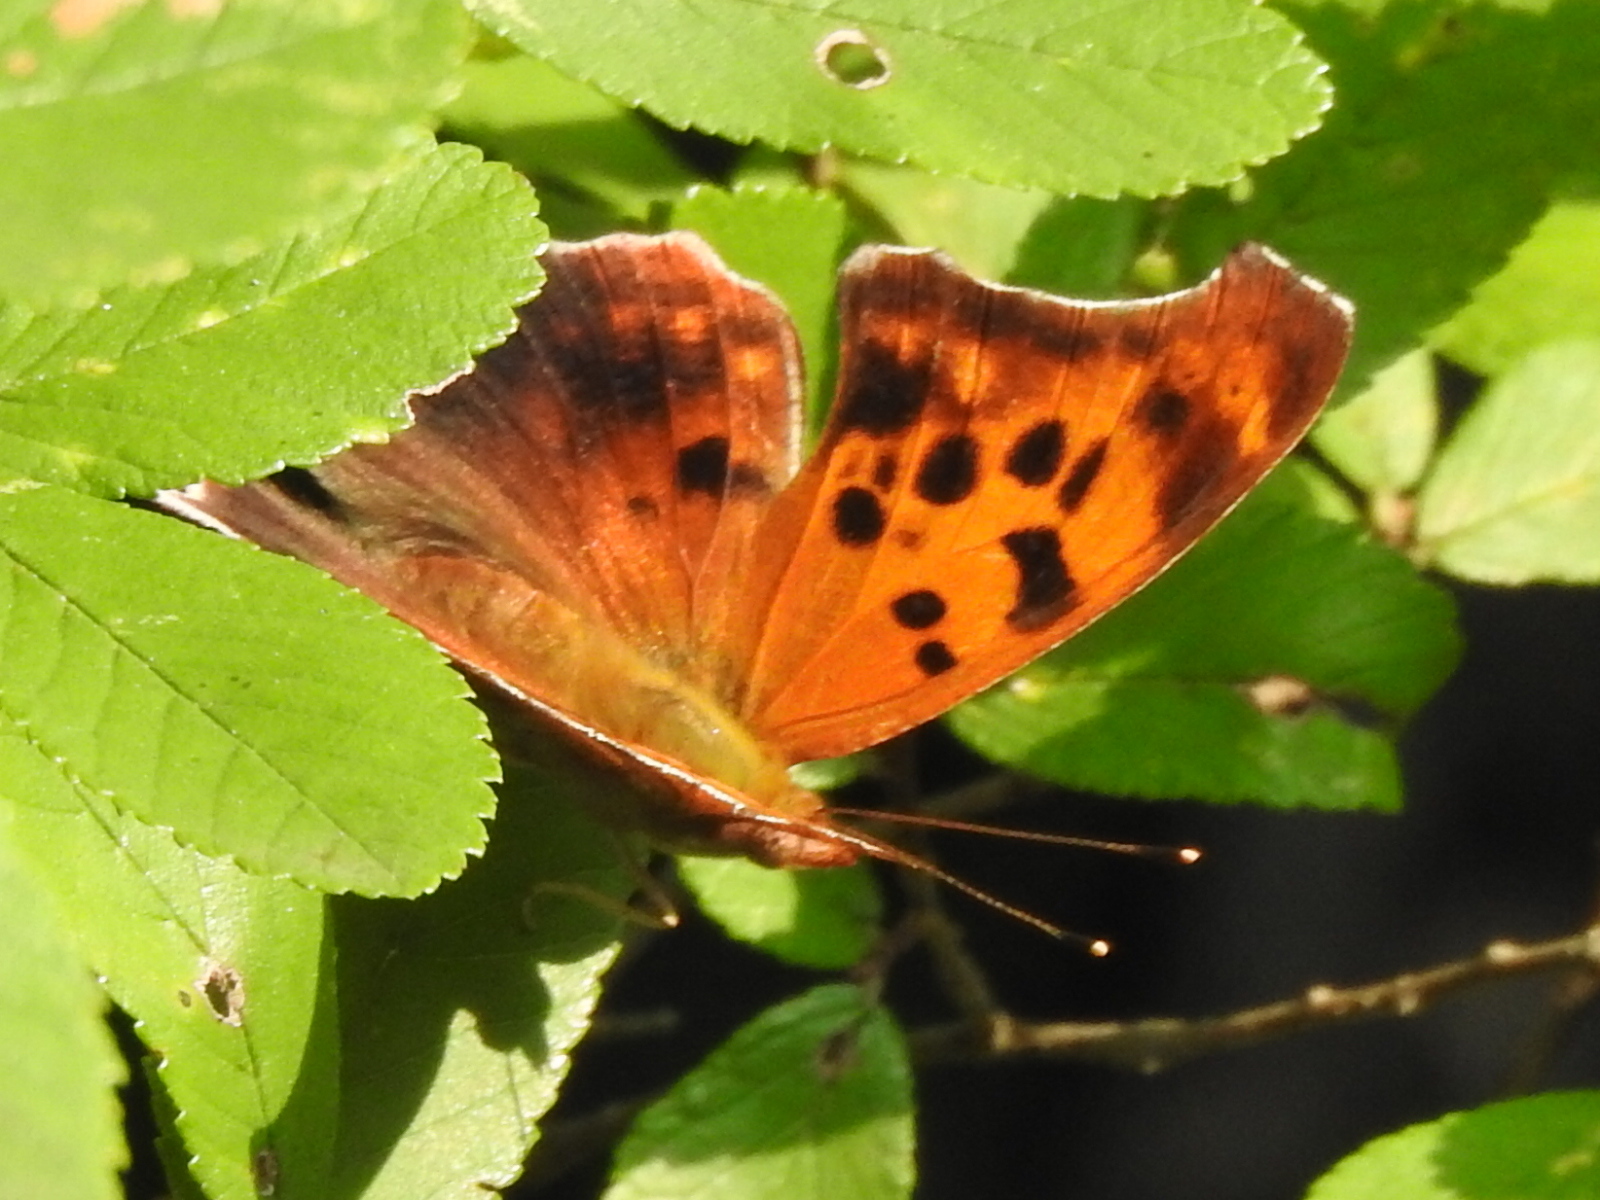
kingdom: Animalia
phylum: Arthropoda
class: Insecta
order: Lepidoptera
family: Nymphalidae
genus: Polygonia
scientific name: Polygonia interrogationis
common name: Question mark
